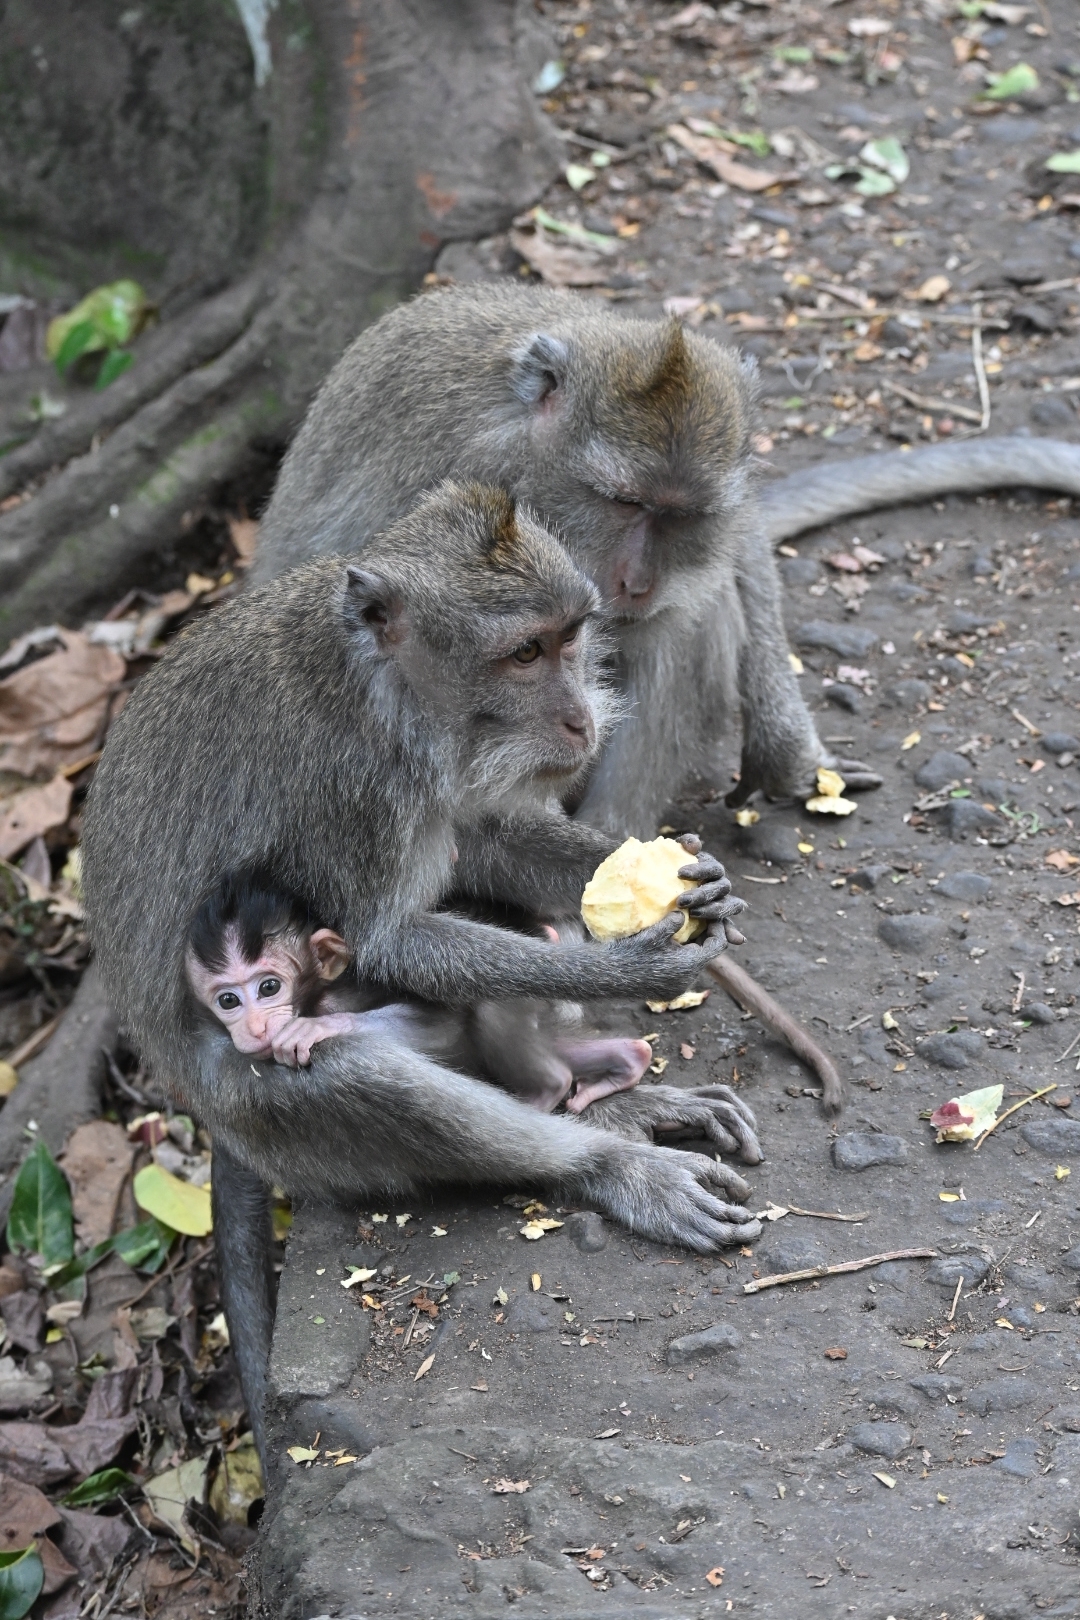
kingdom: Animalia
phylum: Chordata
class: Mammalia
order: Primates
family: Cercopithecidae
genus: Macaca
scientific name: Macaca fascicularis
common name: Crab-eating macaque
